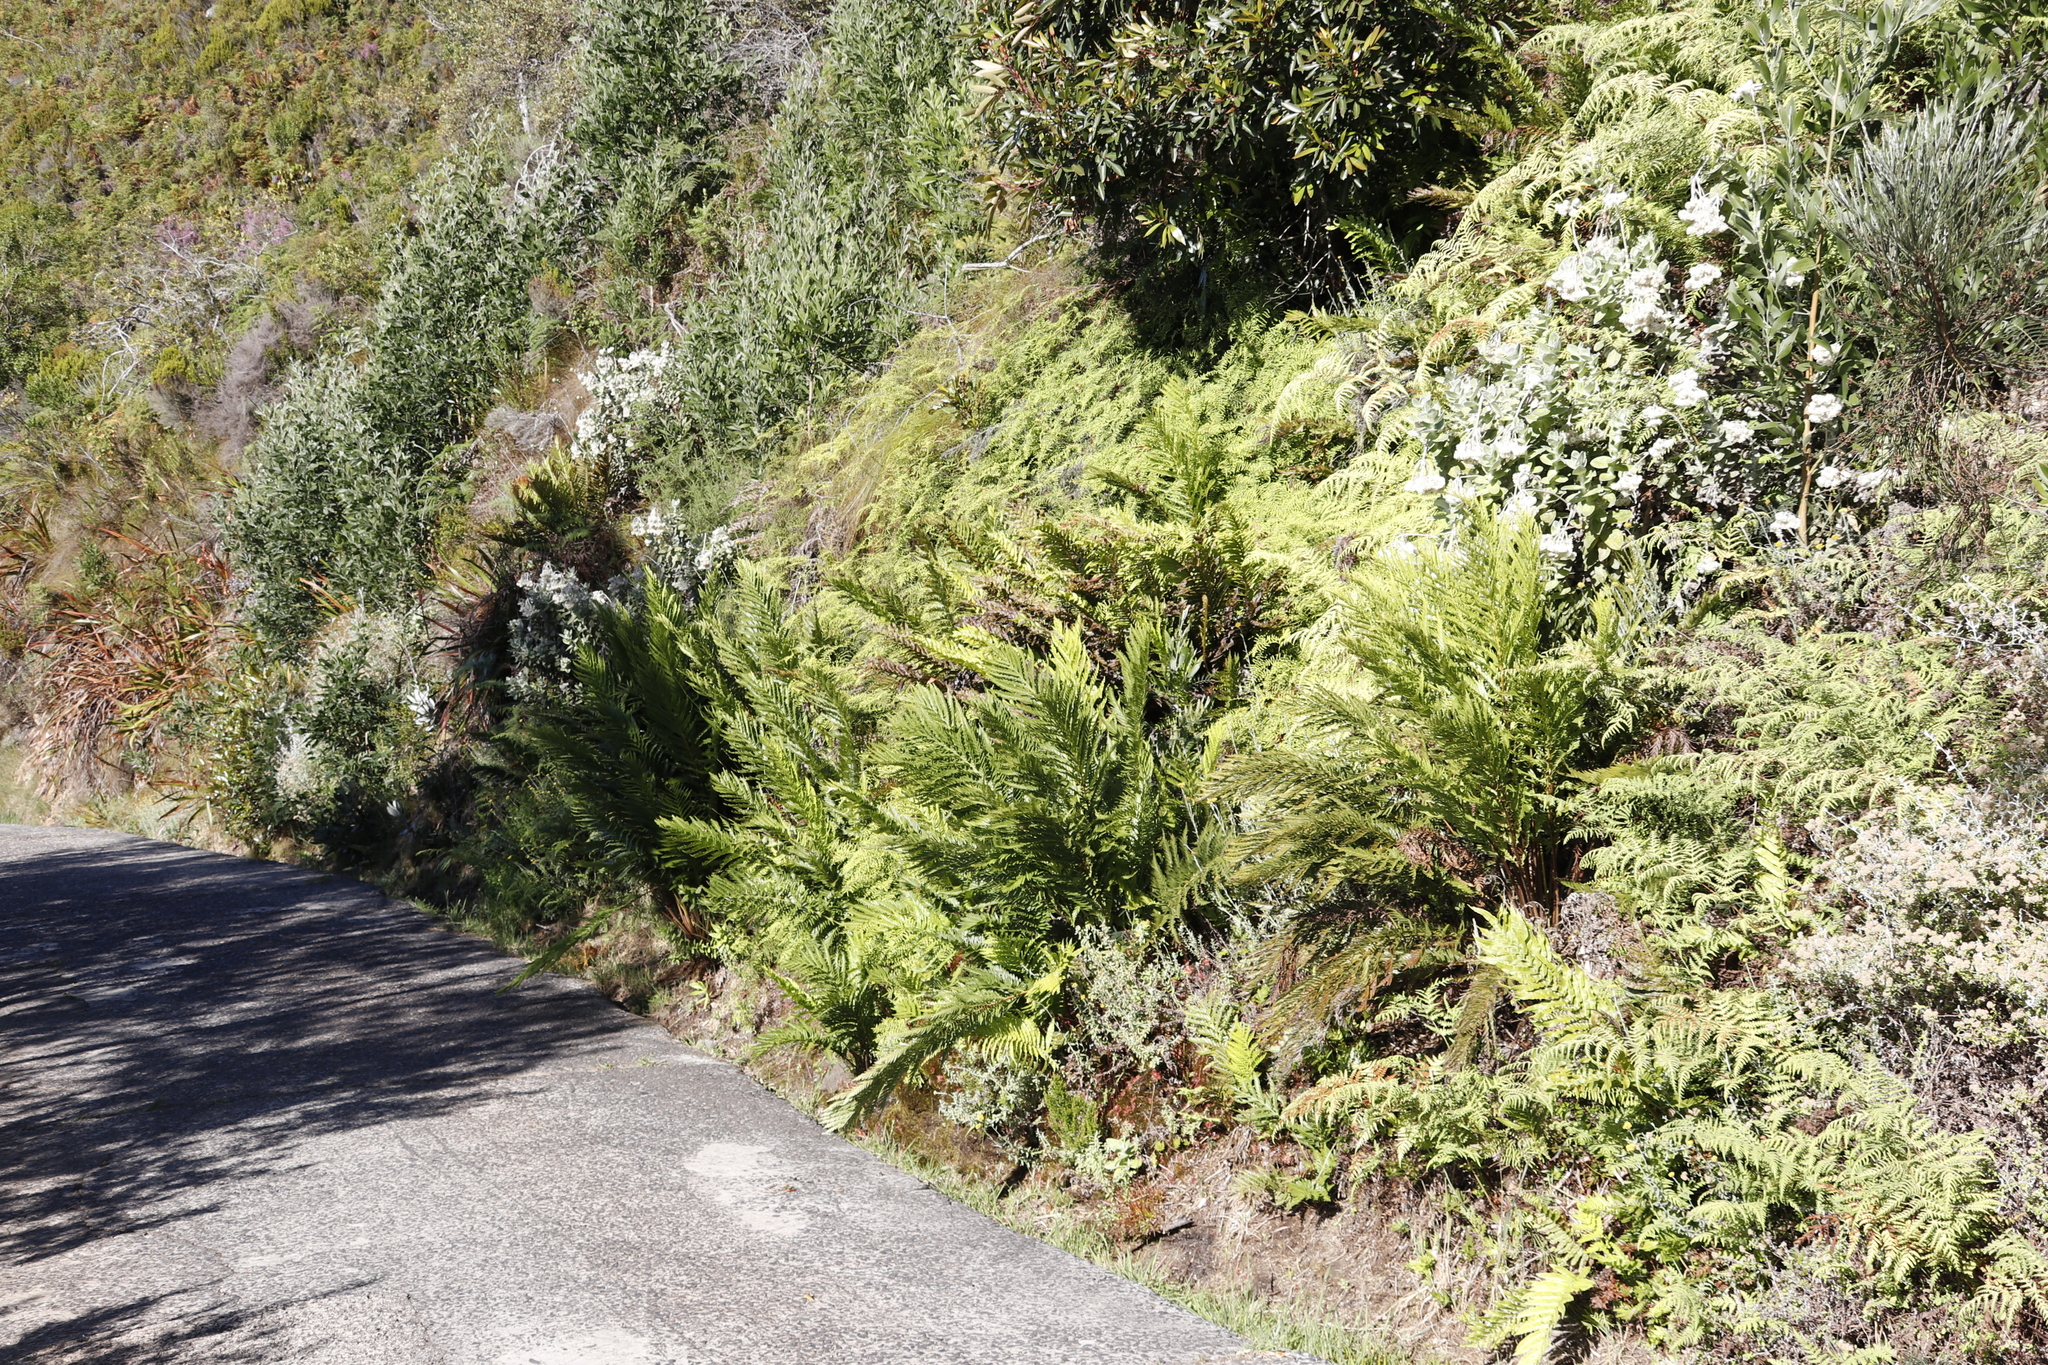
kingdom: Plantae
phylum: Tracheophyta
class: Polypodiopsida
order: Osmundales
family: Osmundaceae
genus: Todea
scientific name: Todea barbara
